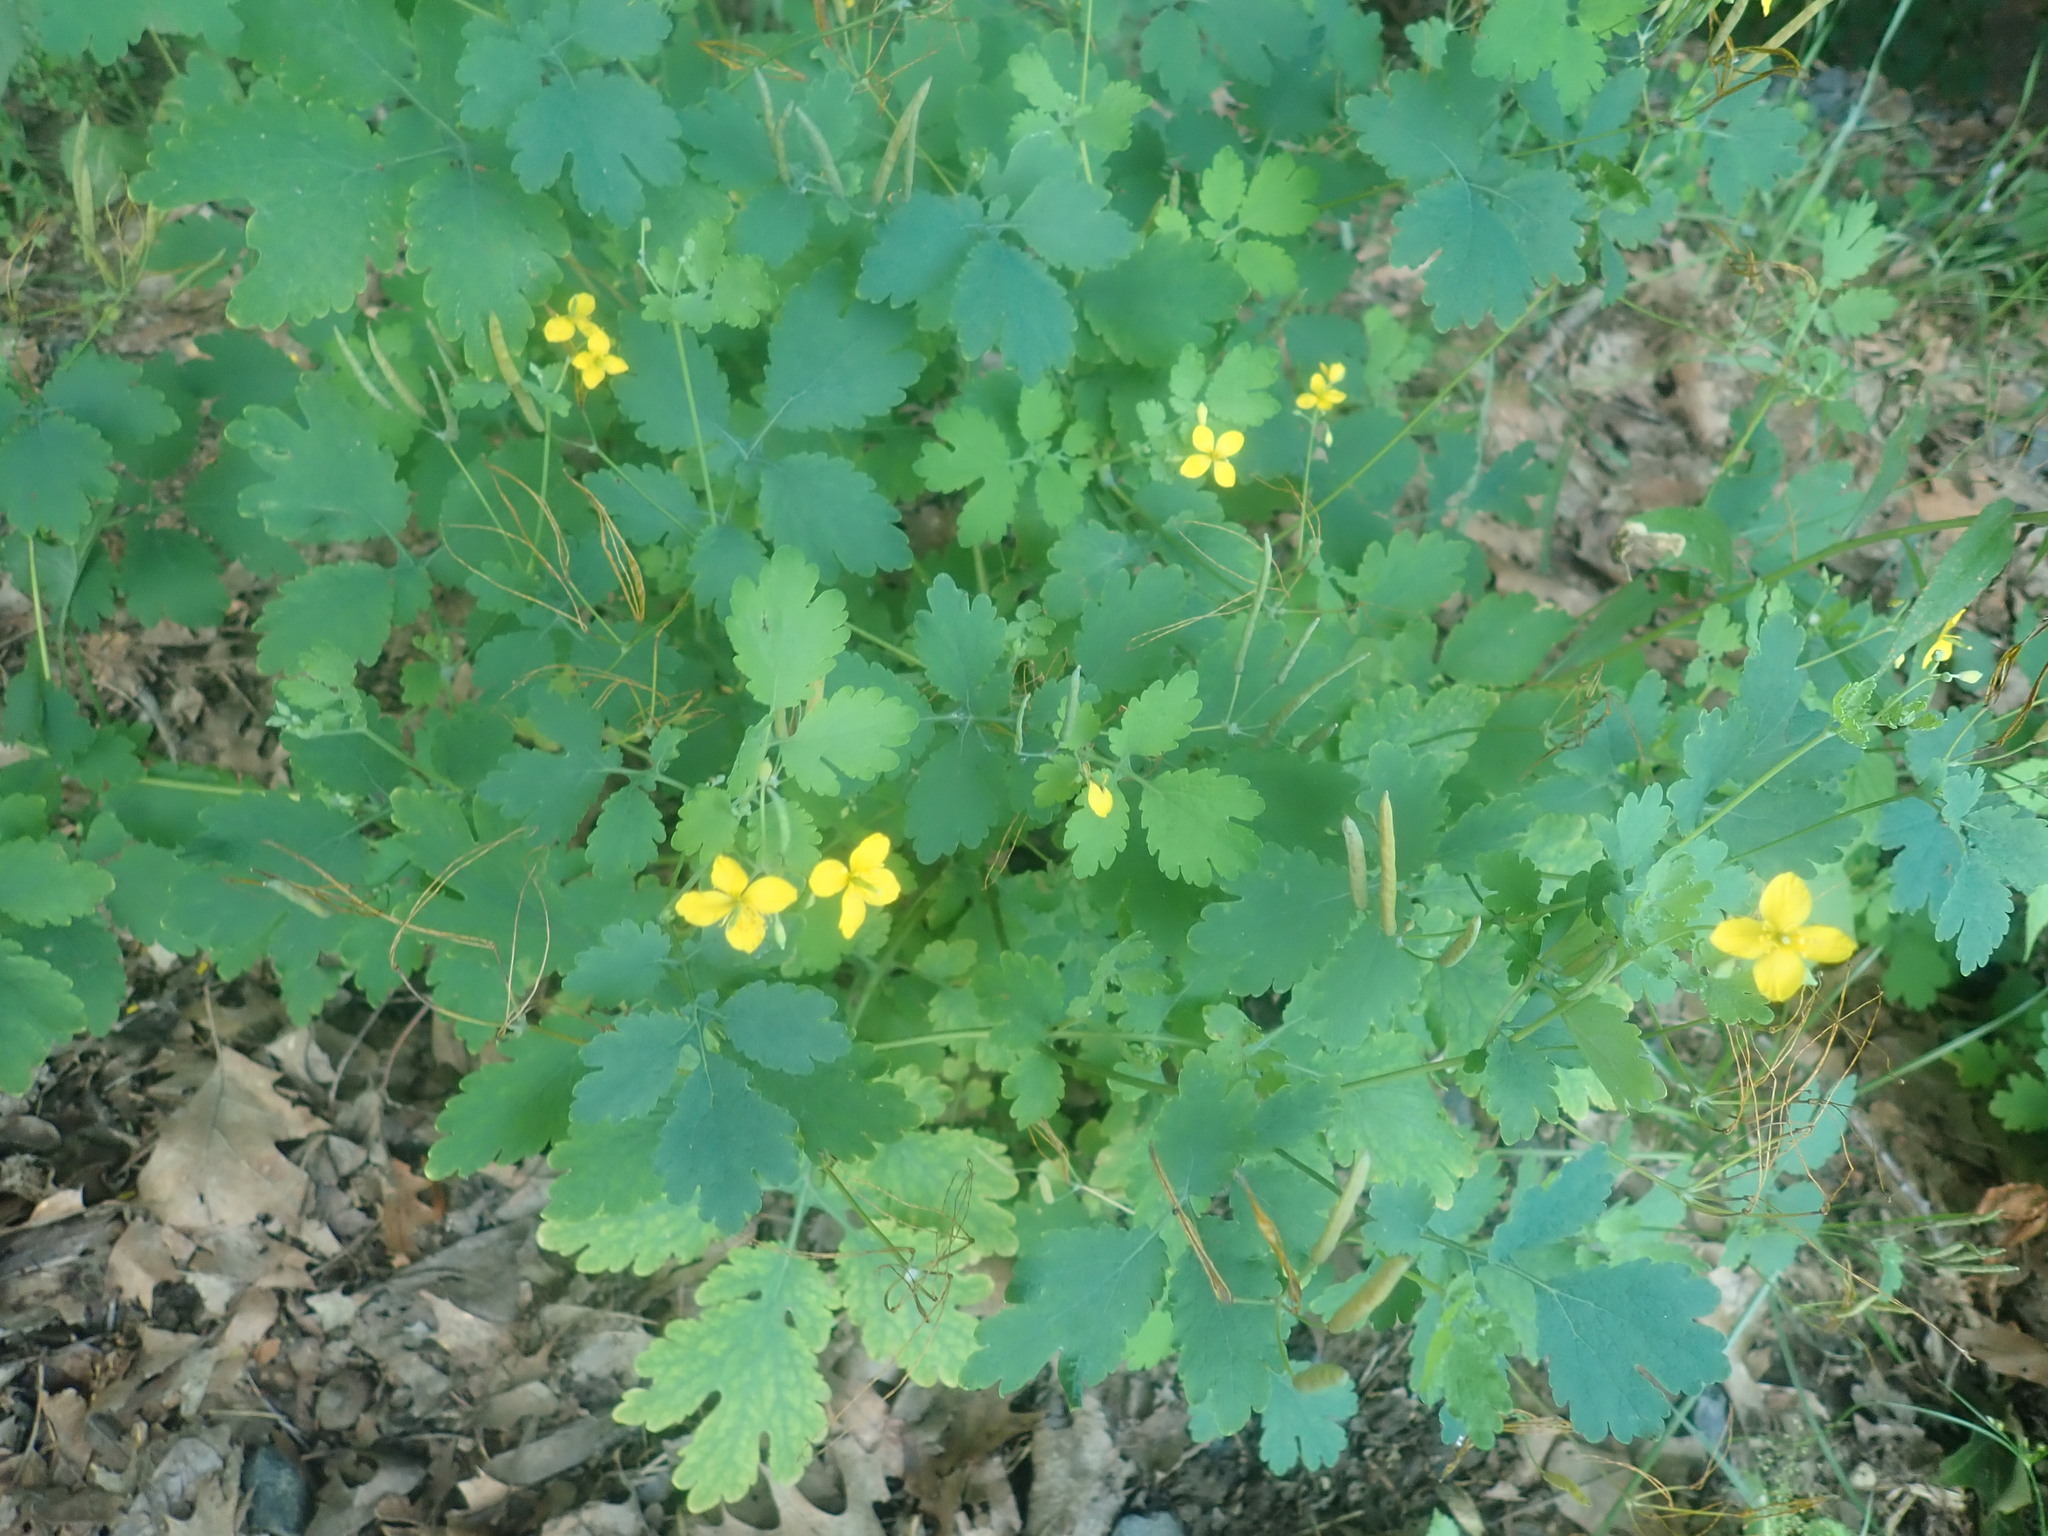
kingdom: Plantae
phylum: Tracheophyta
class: Magnoliopsida
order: Ranunculales
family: Papaveraceae
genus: Chelidonium
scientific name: Chelidonium majus
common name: Greater celandine
